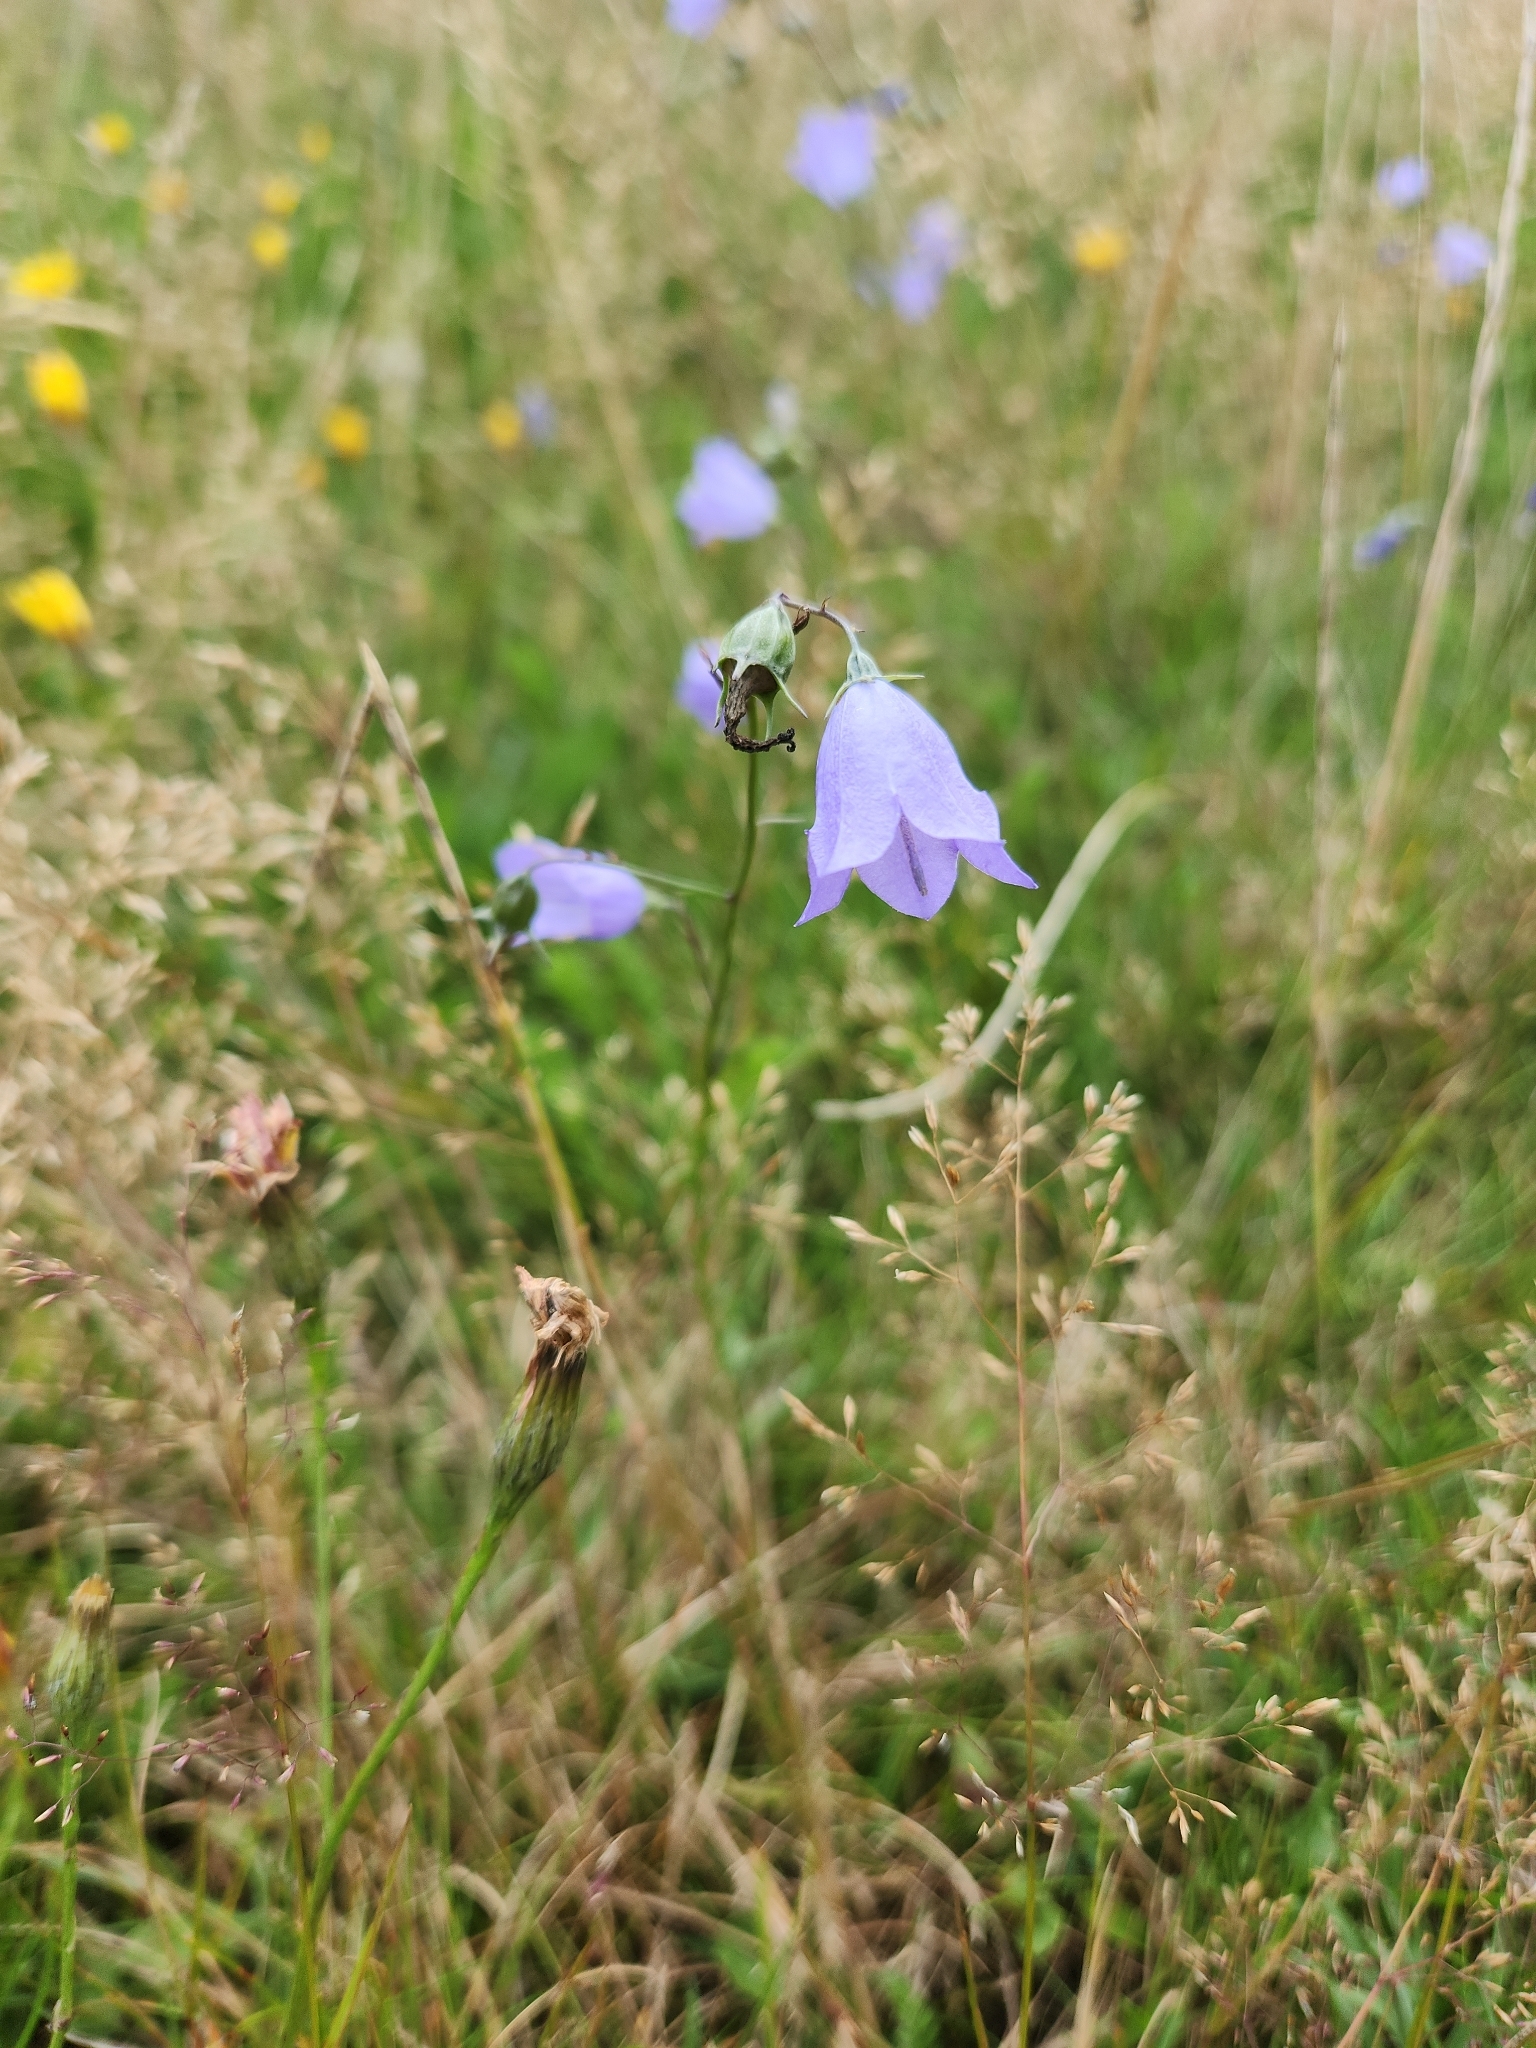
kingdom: Plantae
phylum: Tracheophyta
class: Magnoliopsida
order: Asterales
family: Campanulaceae
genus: Campanula
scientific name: Campanula rotundifolia
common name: Harebell
